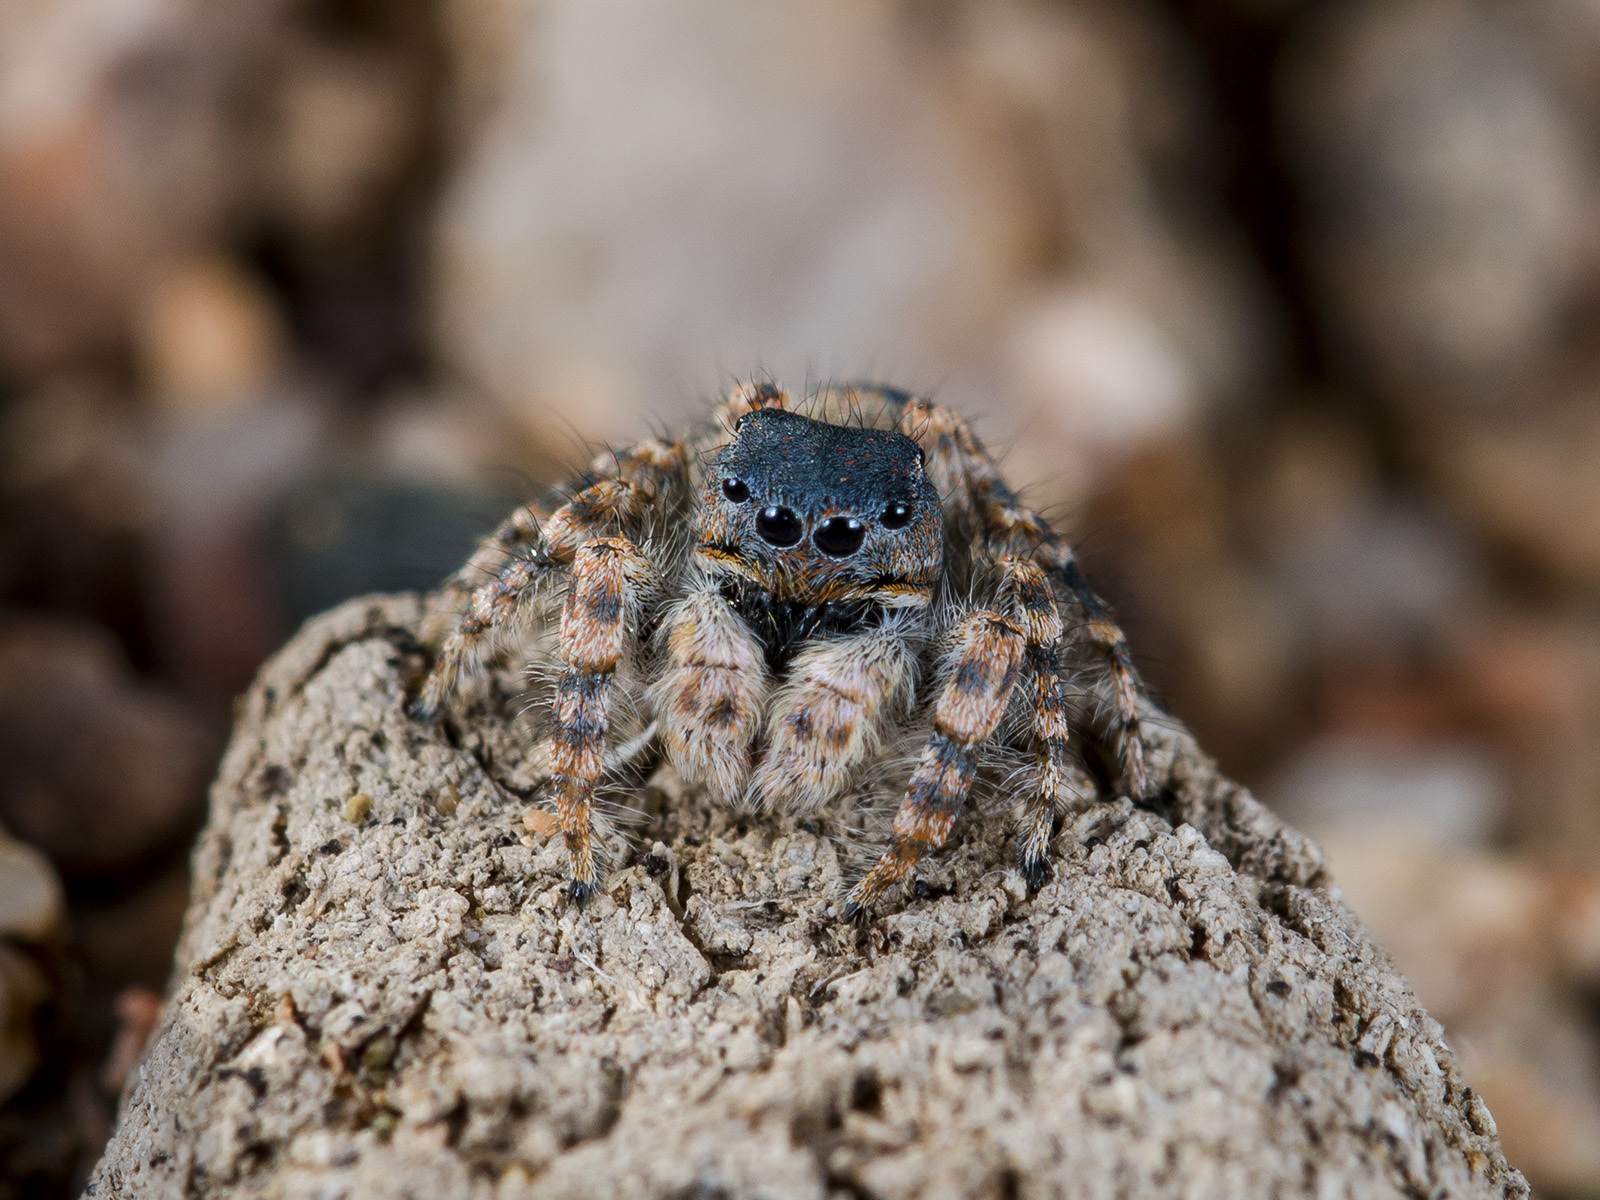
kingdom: Animalia
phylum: Arthropoda
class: Arachnida
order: Araneae
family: Salticidae
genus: Yllenus
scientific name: Yllenus zyuzini
